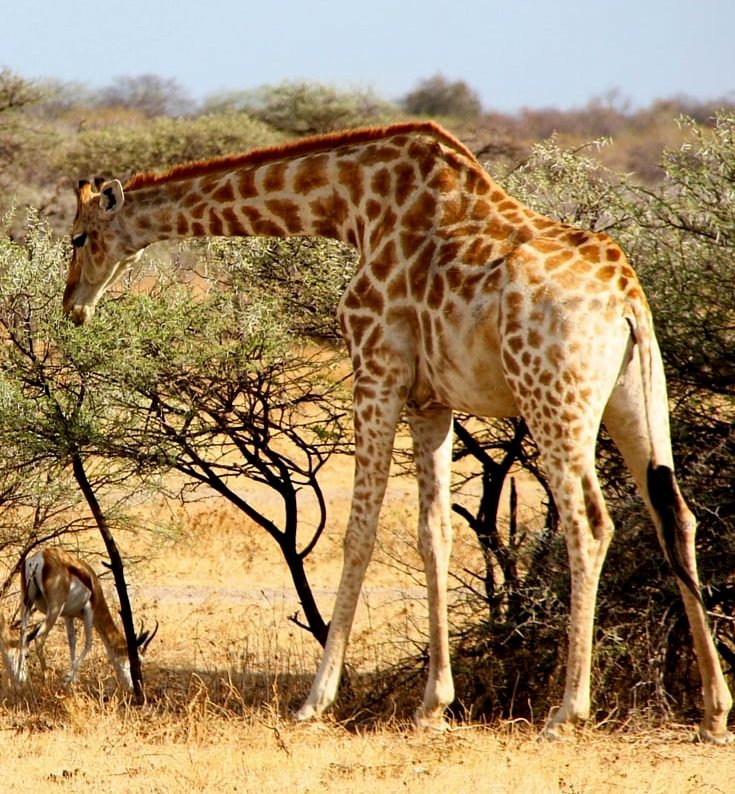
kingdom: Animalia
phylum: Chordata
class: Mammalia
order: Artiodactyla
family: Giraffidae
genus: Giraffa
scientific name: Giraffa giraffa
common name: Southern giraffe
